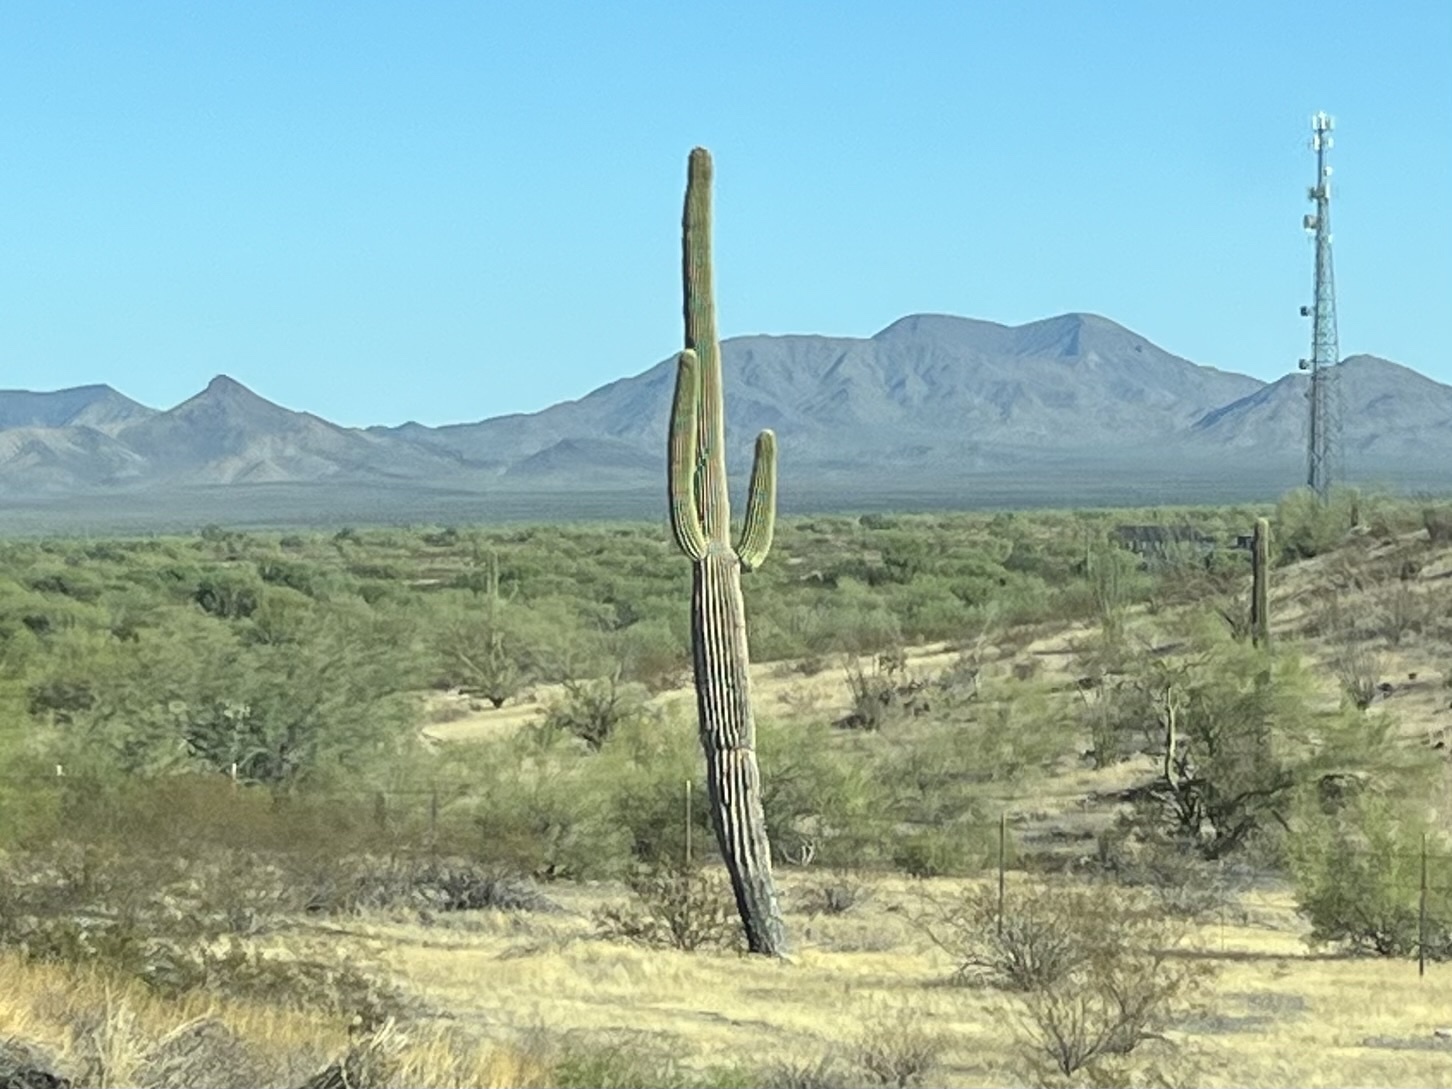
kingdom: Plantae
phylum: Tracheophyta
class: Magnoliopsida
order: Caryophyllales
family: Cactaceae
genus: Carnegiea
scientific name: Carnegiea gigantea
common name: Saguaro
